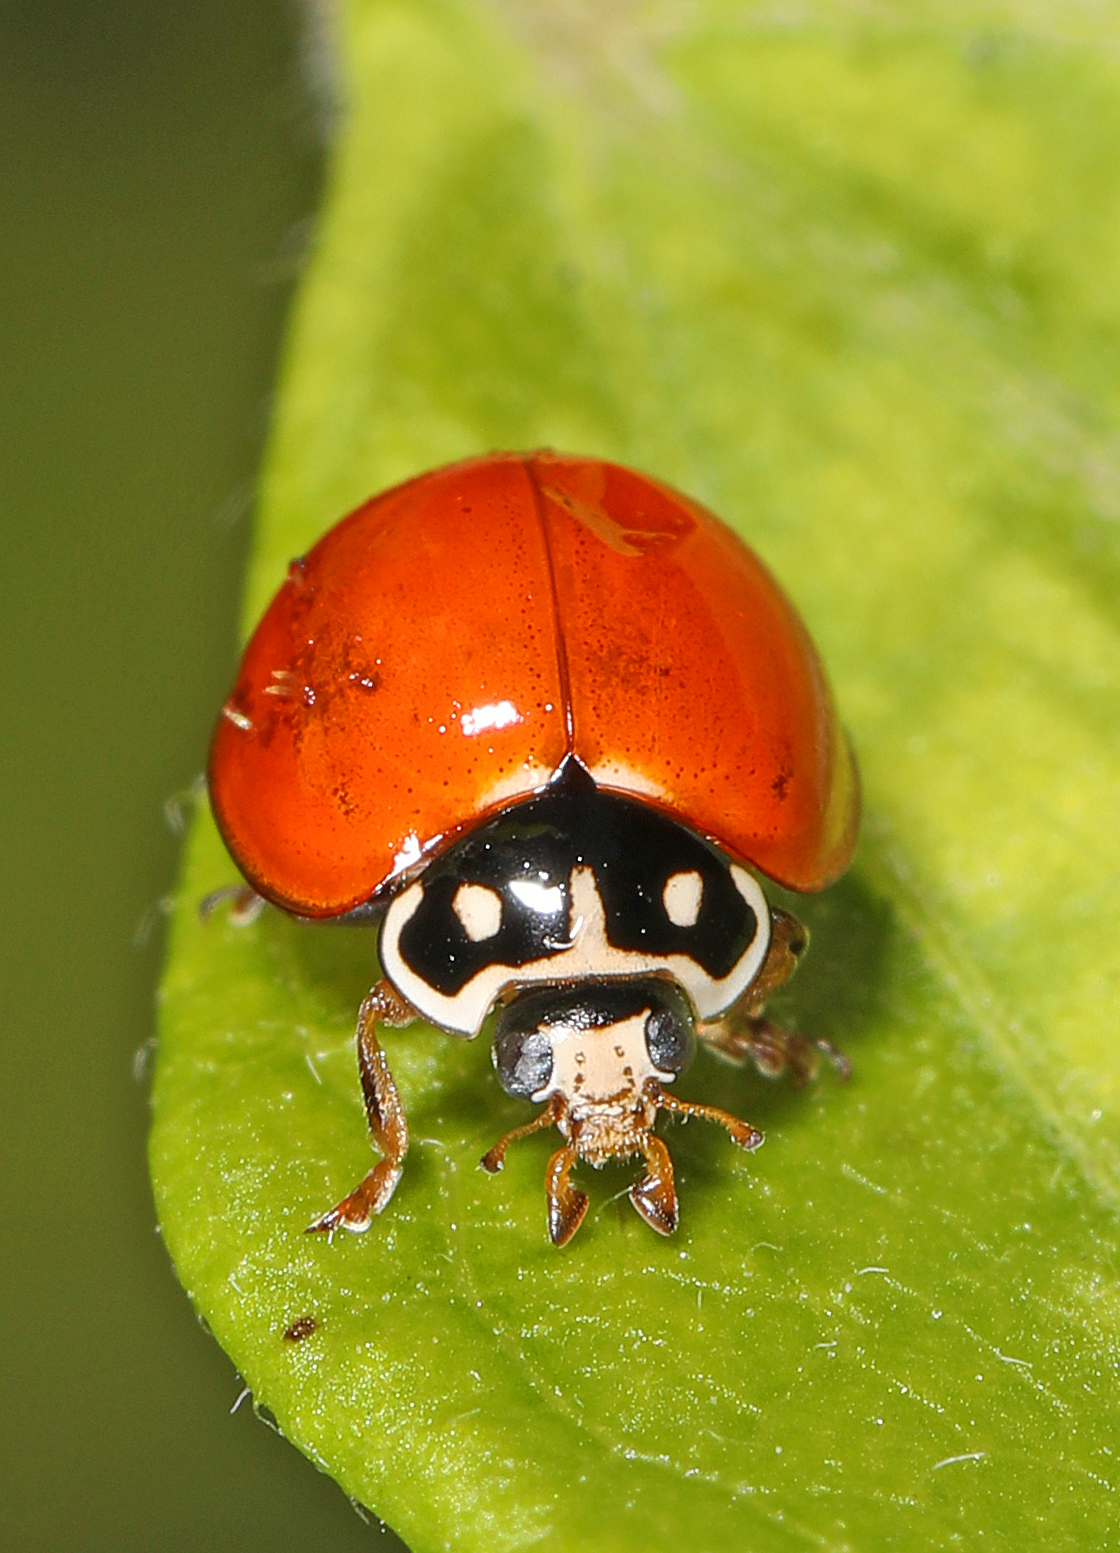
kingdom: Animalia
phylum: Arthropoda
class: Insecta
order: Coleoptera
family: Coccinellidae
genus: Cycloneda
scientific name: Cycloneda sanguinea
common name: Ladybird beetle
